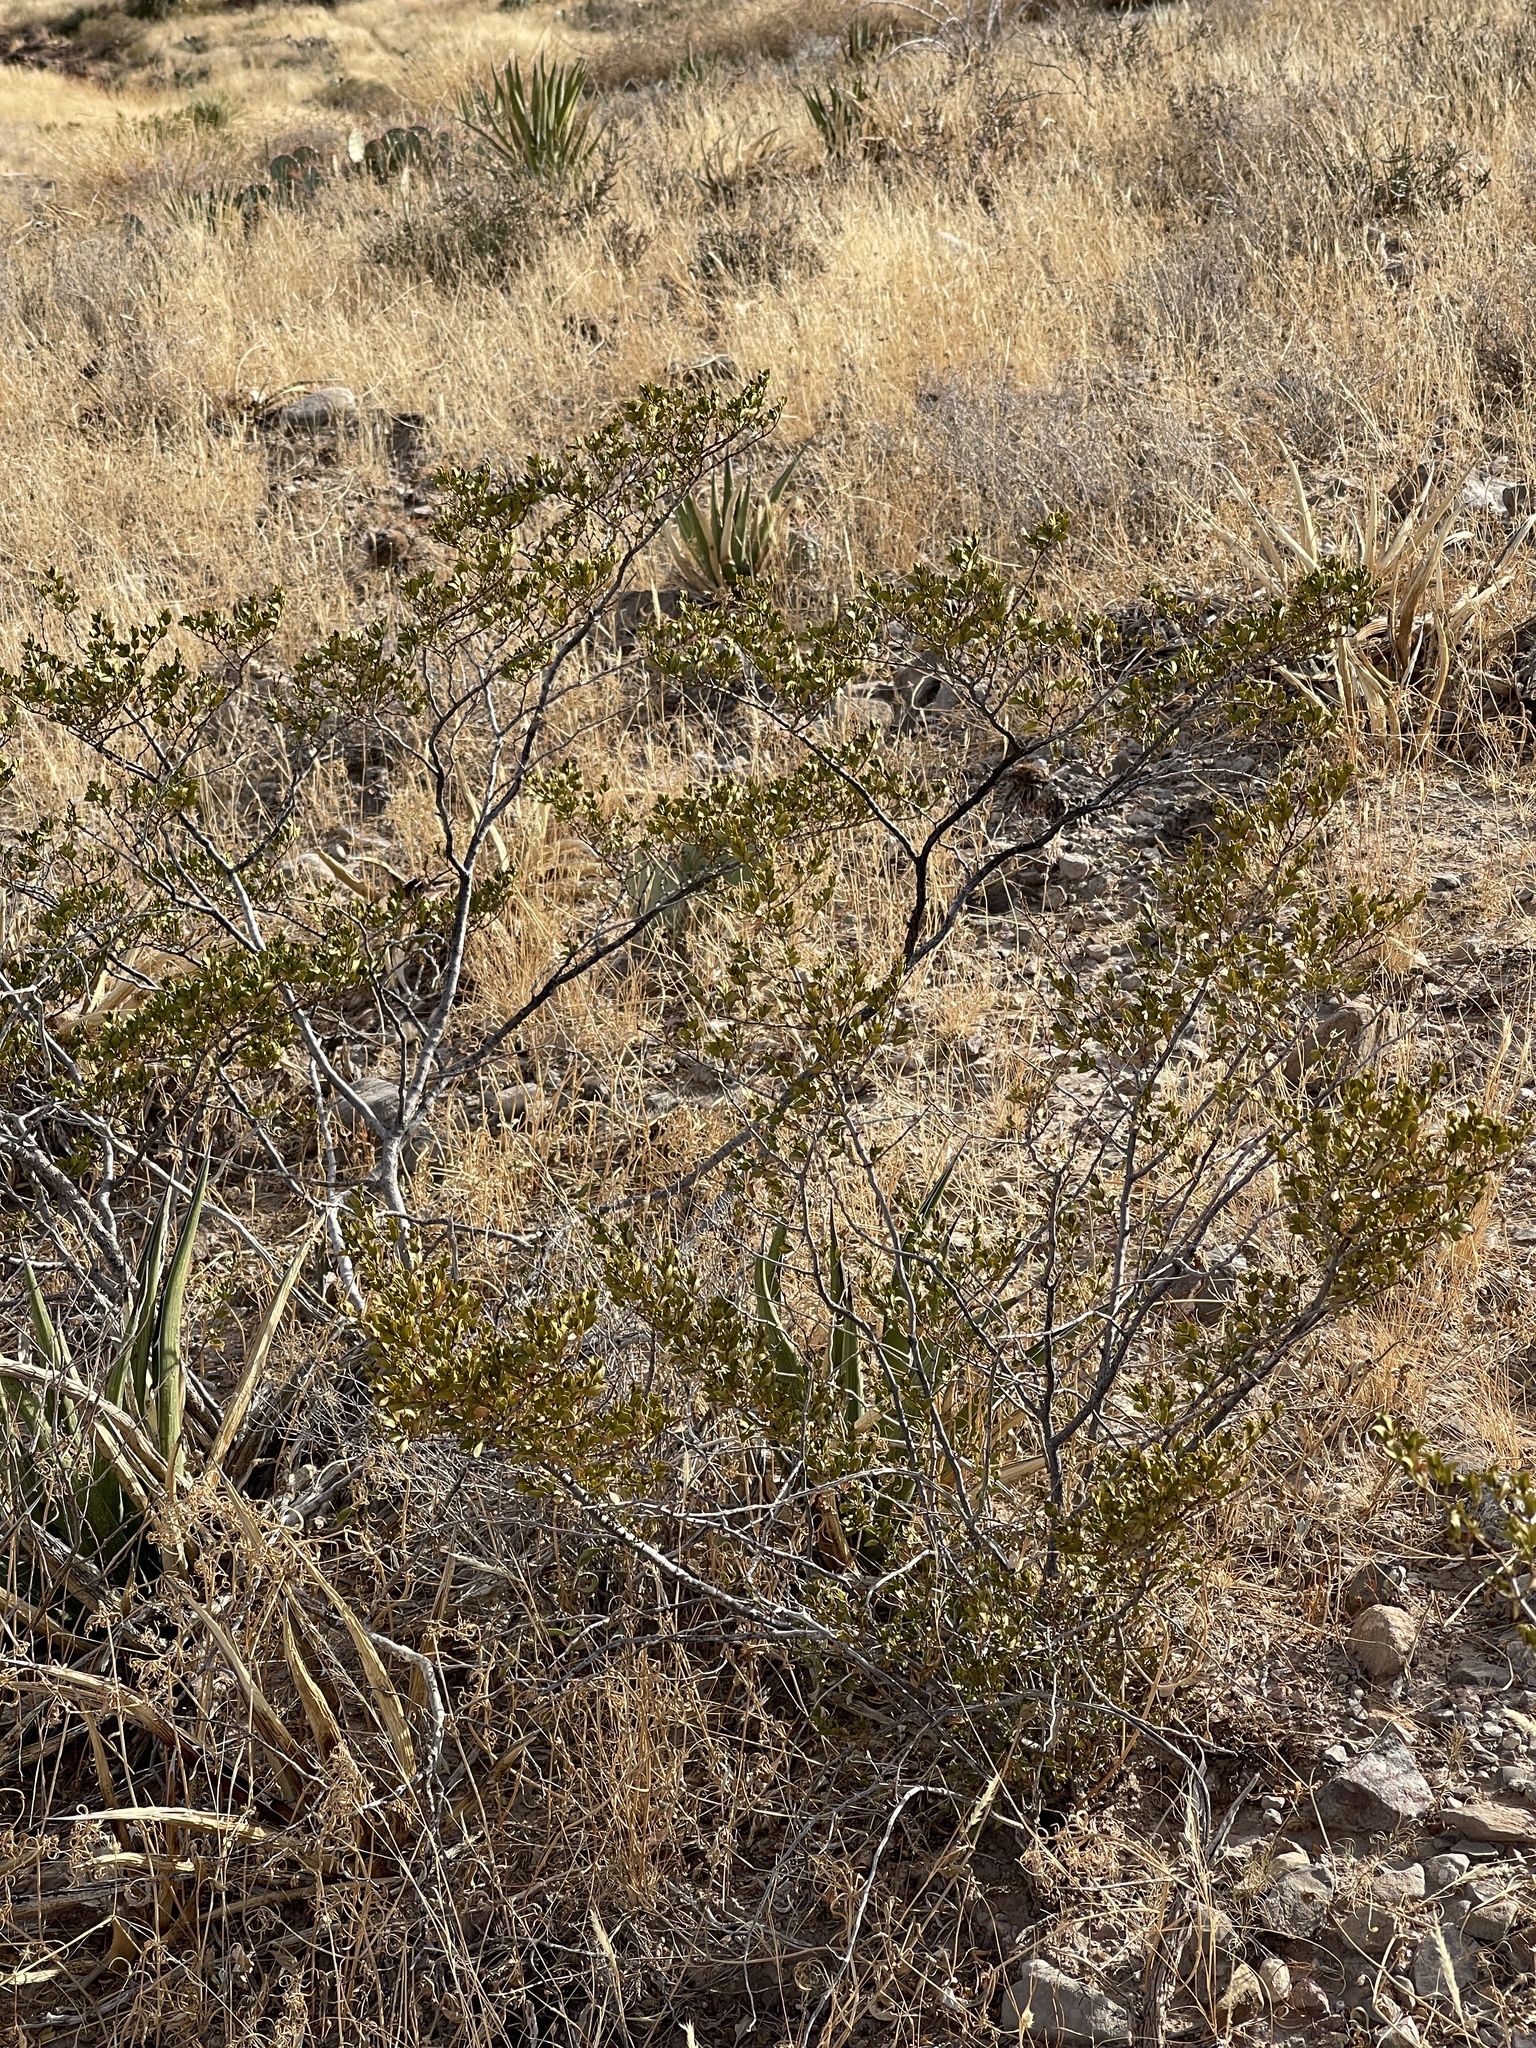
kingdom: Plantae
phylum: Tracheophyta
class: Magnoliopsida
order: Zygophyllales
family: Zygophyllaceae
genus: Larrea
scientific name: Larrea tridentata
